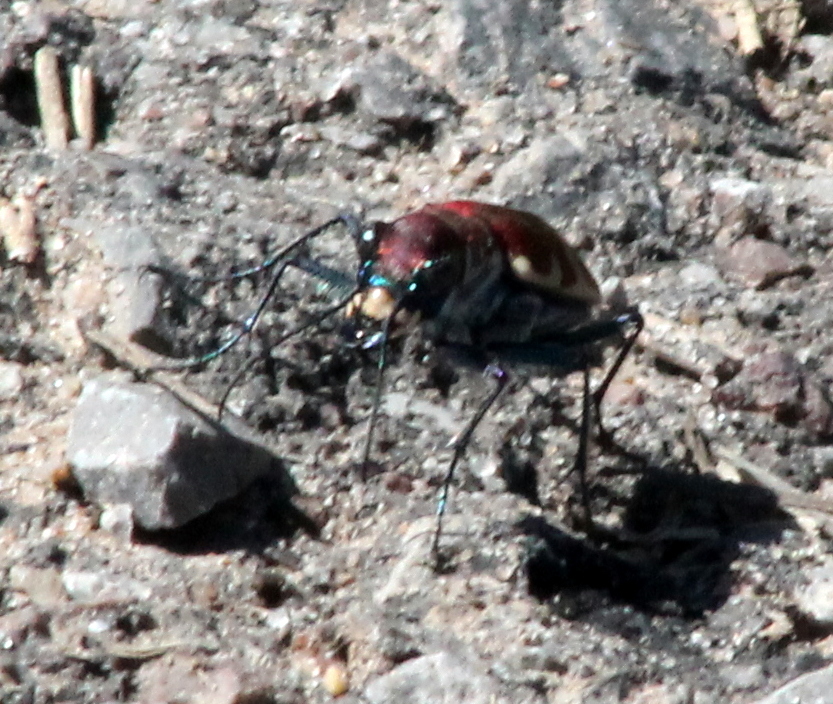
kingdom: Animalia
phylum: Arthropoda
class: Insecta
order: Coleoptera
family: Carabidae
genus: Cicindela
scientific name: Cicindela formosa
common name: Big sand tiger beetle
